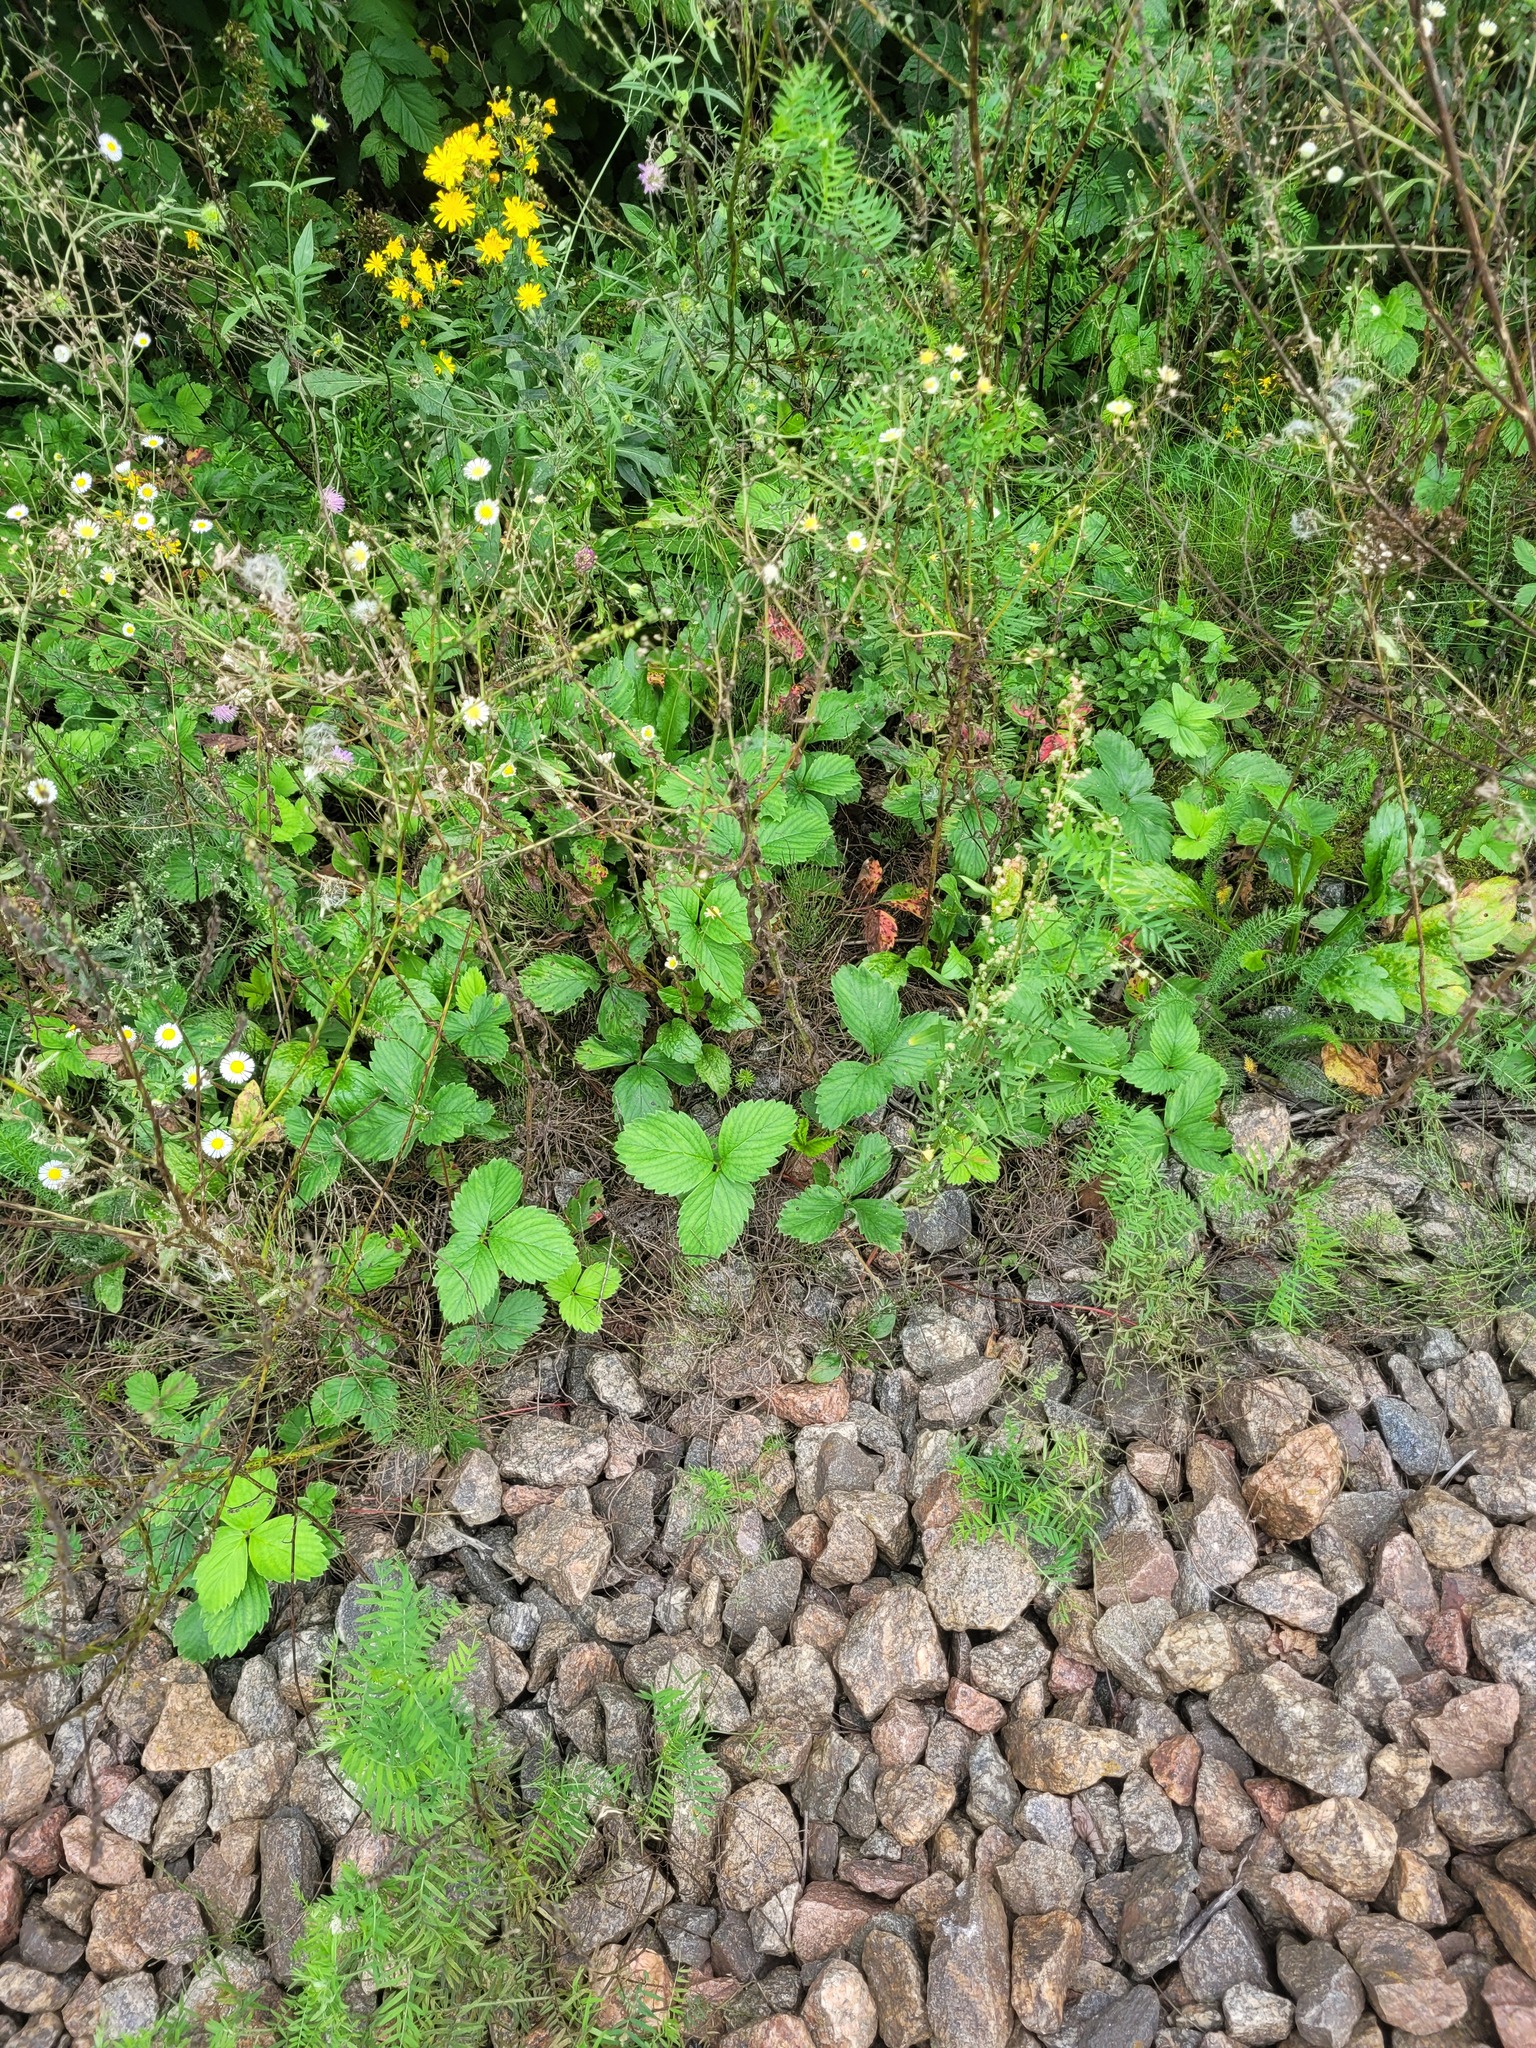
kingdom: Plantae
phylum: Tracheophyta
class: Magnoliopsida
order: Rosales
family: Rosaceae
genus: Fragaria
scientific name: Fragaria ananassa
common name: Garden strawberry
